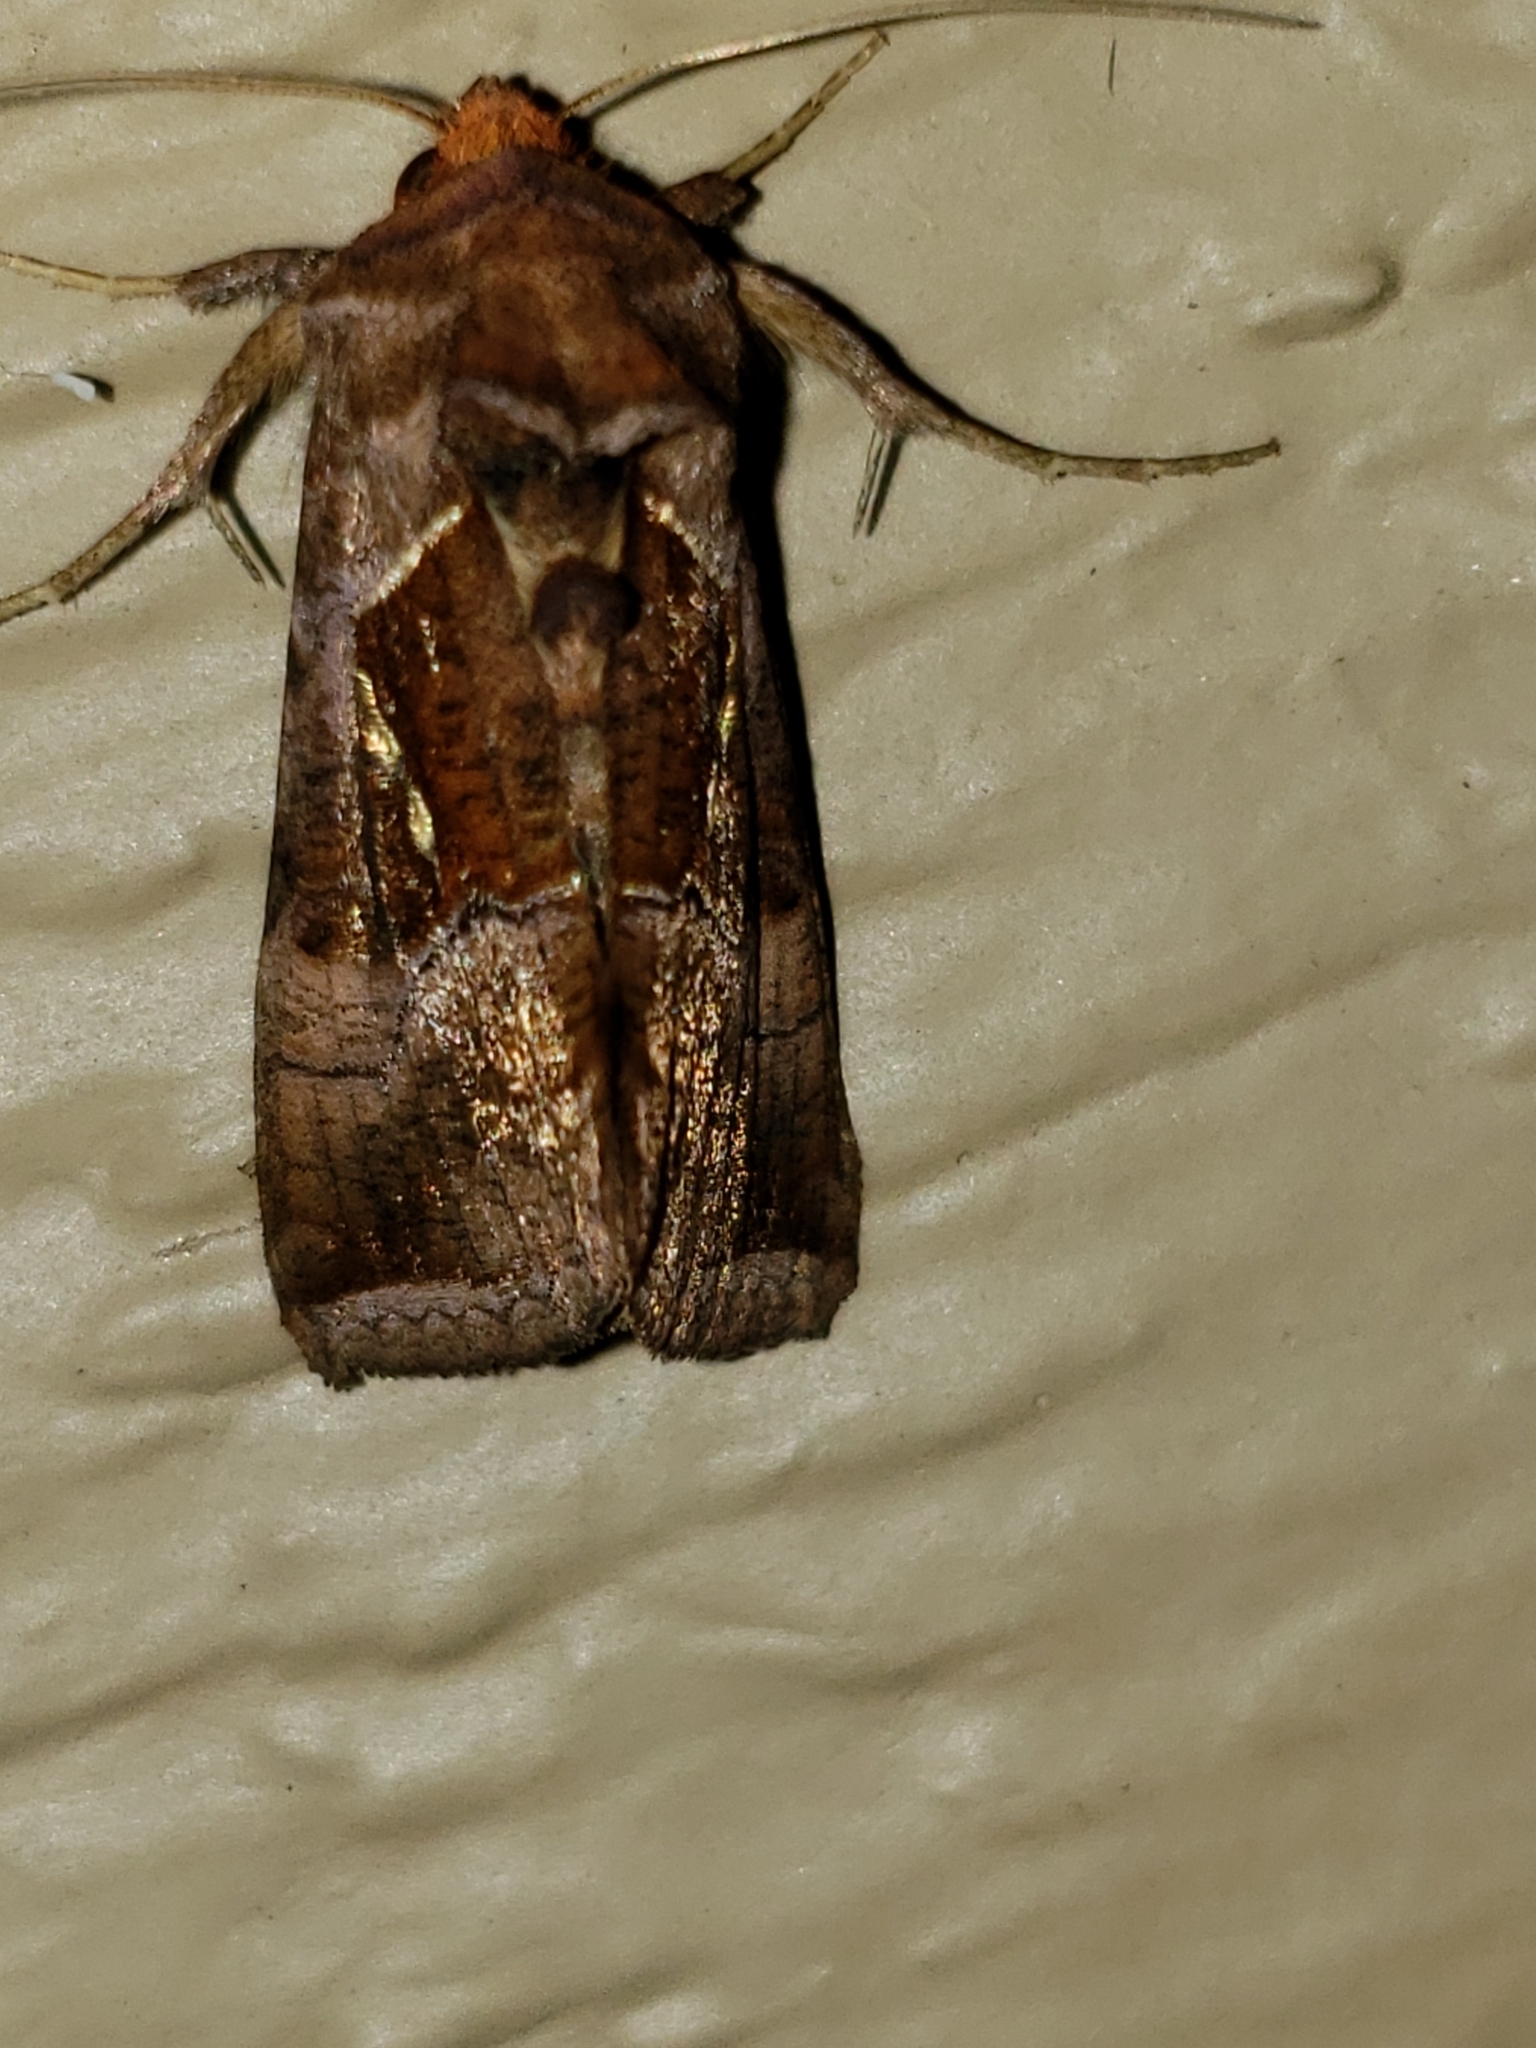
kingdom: Animalia
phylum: Arthropoda
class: Insecta
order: Lepidoptera
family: Noctuidae
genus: Enigmogramma
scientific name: Enigmogramma basigera
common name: Pink-washed looper moth
